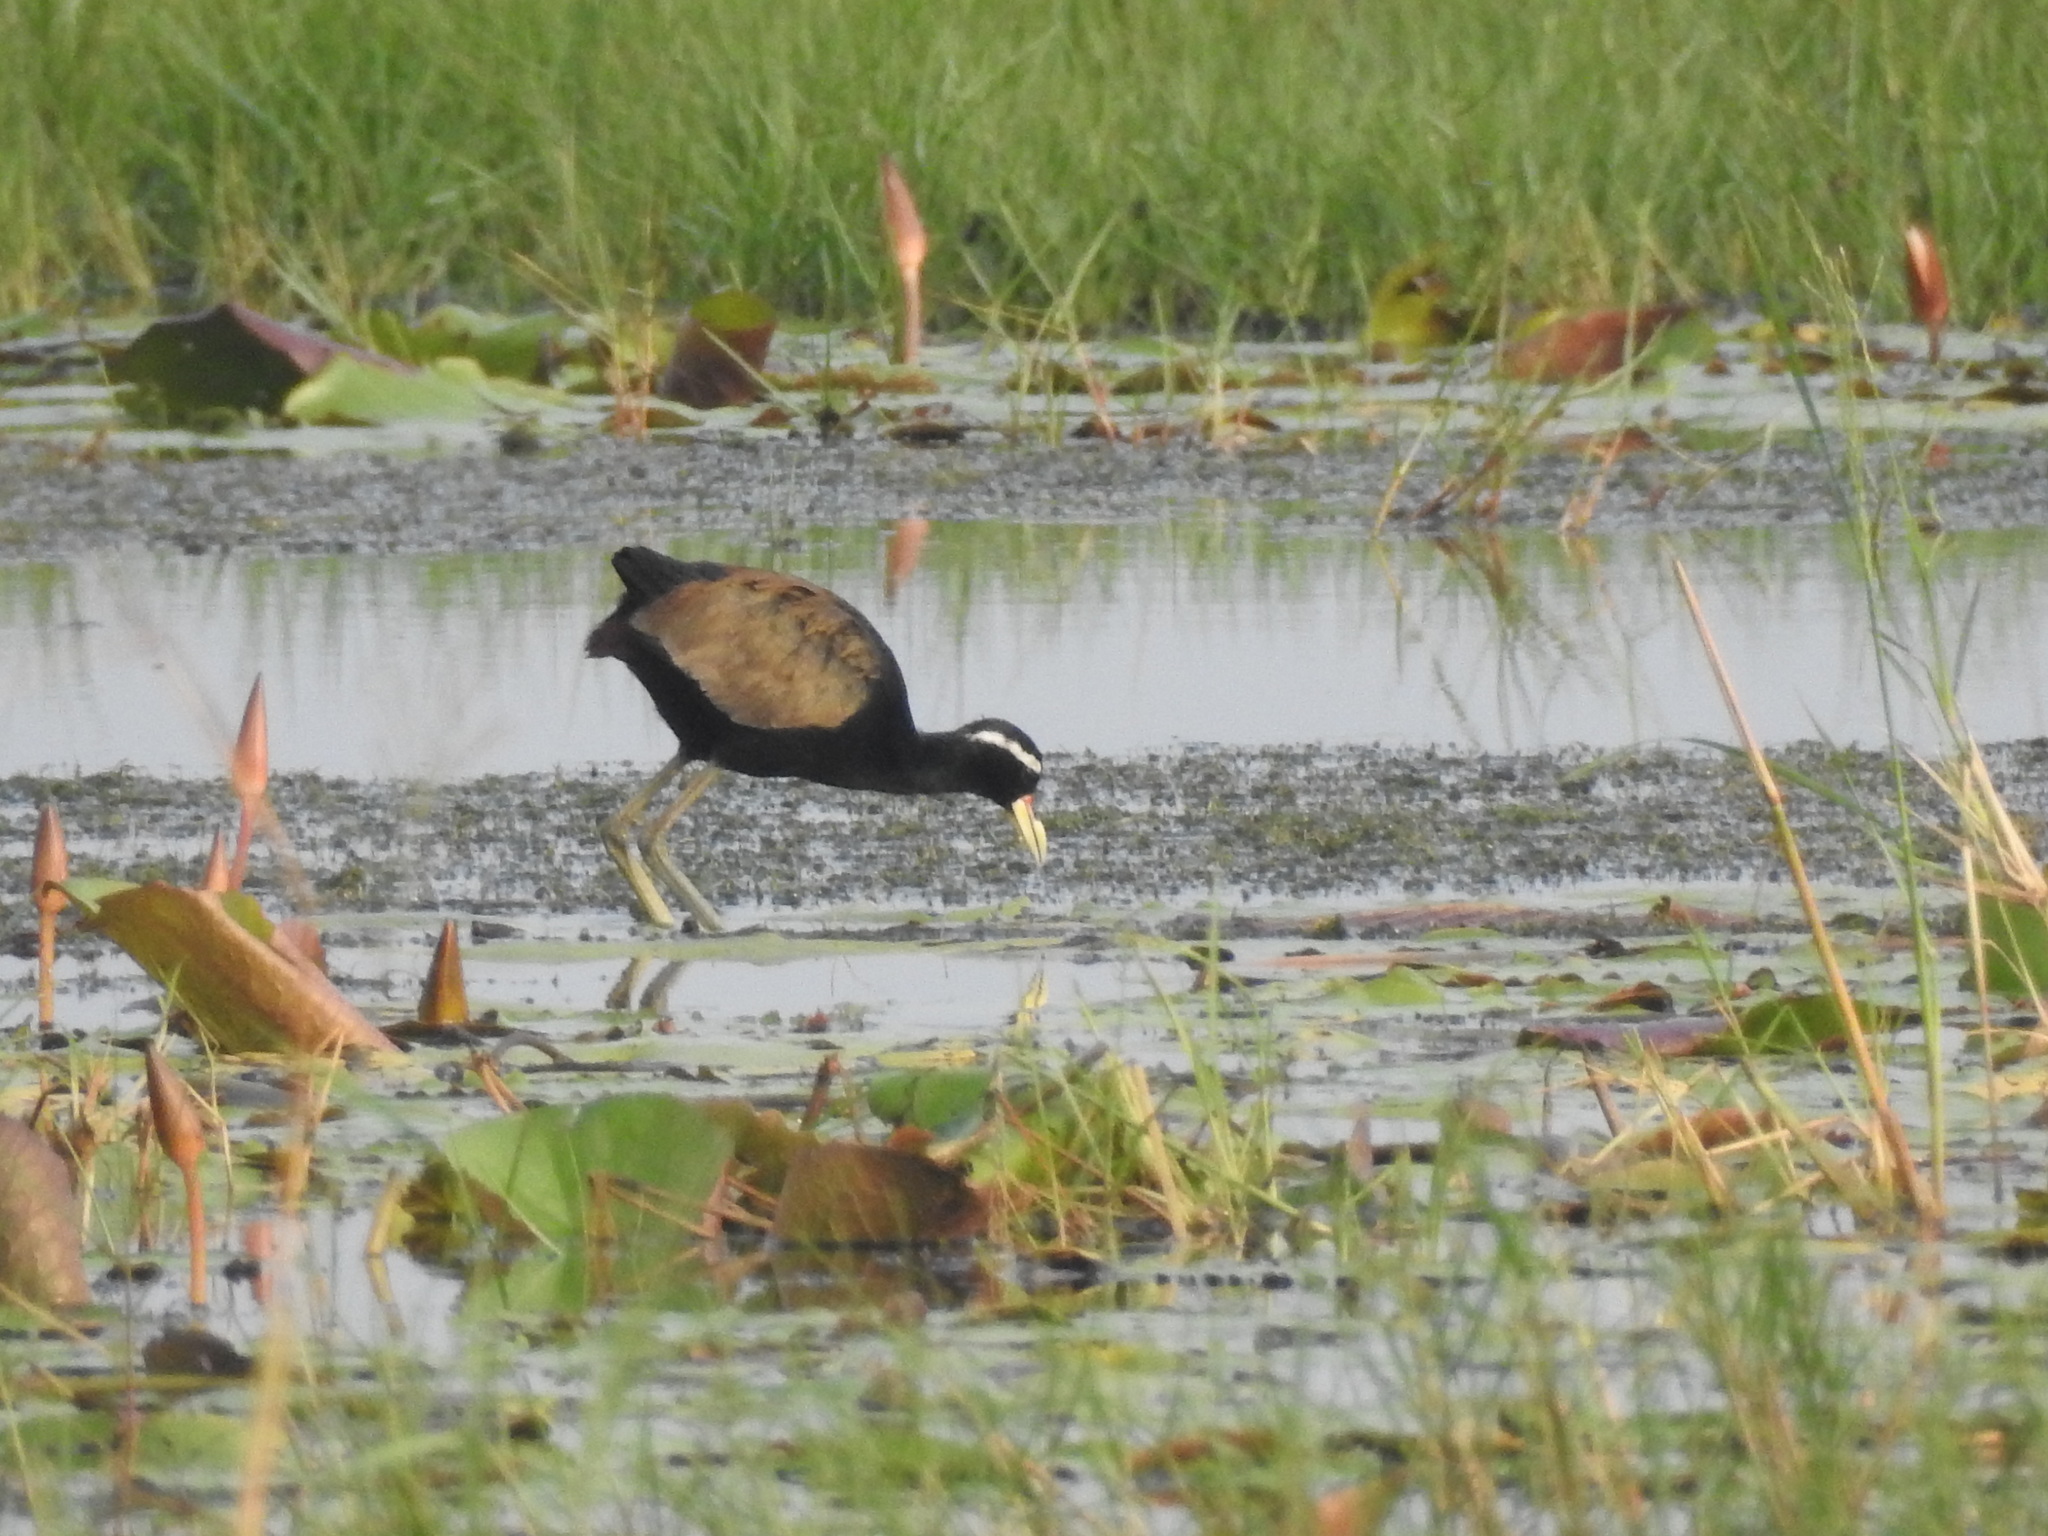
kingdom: Animalia
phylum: Chordata
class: Aves
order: Charadriiformes
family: Jacanidae
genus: Metopidius
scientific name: Metopidius indicus
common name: Bronze-winged jacana
